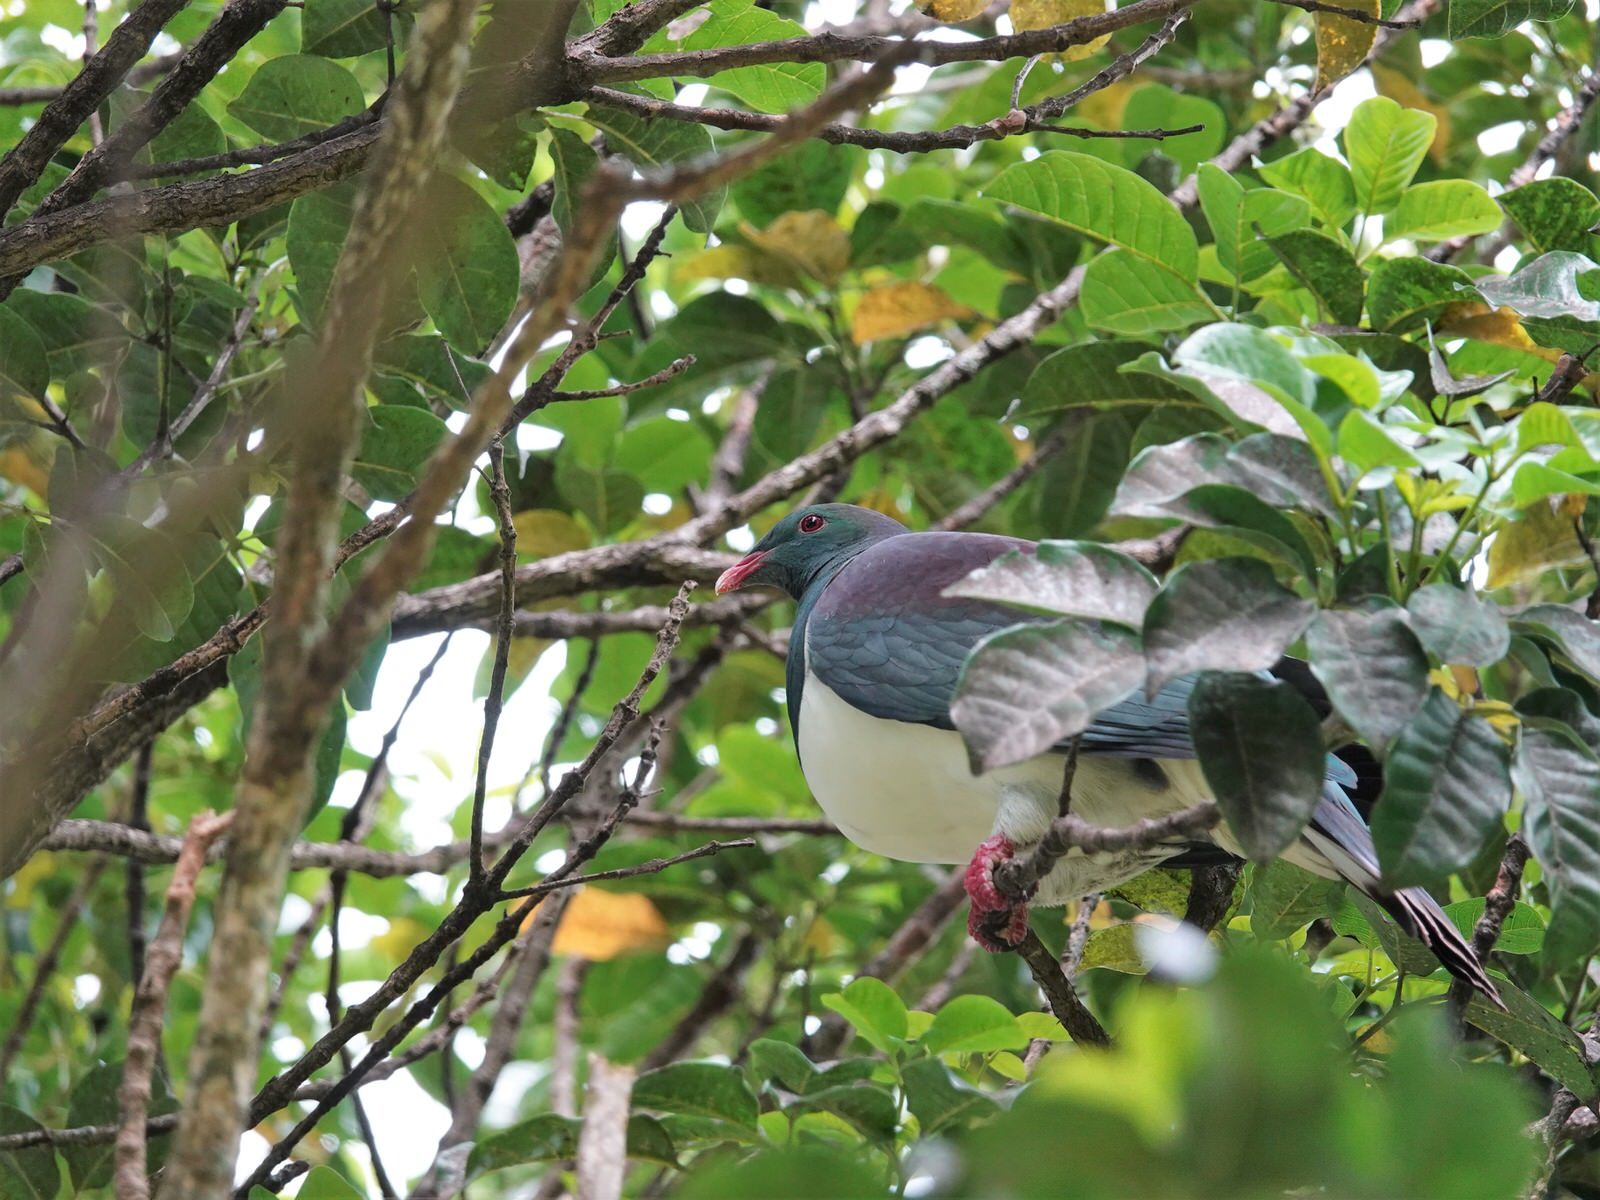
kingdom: Animalia
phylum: Chordata
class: Aves
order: Columbiformes
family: Columbidae
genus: Hemiphaga
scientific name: Hemiphaga novaeseelandiae
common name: New zealand pigeon
